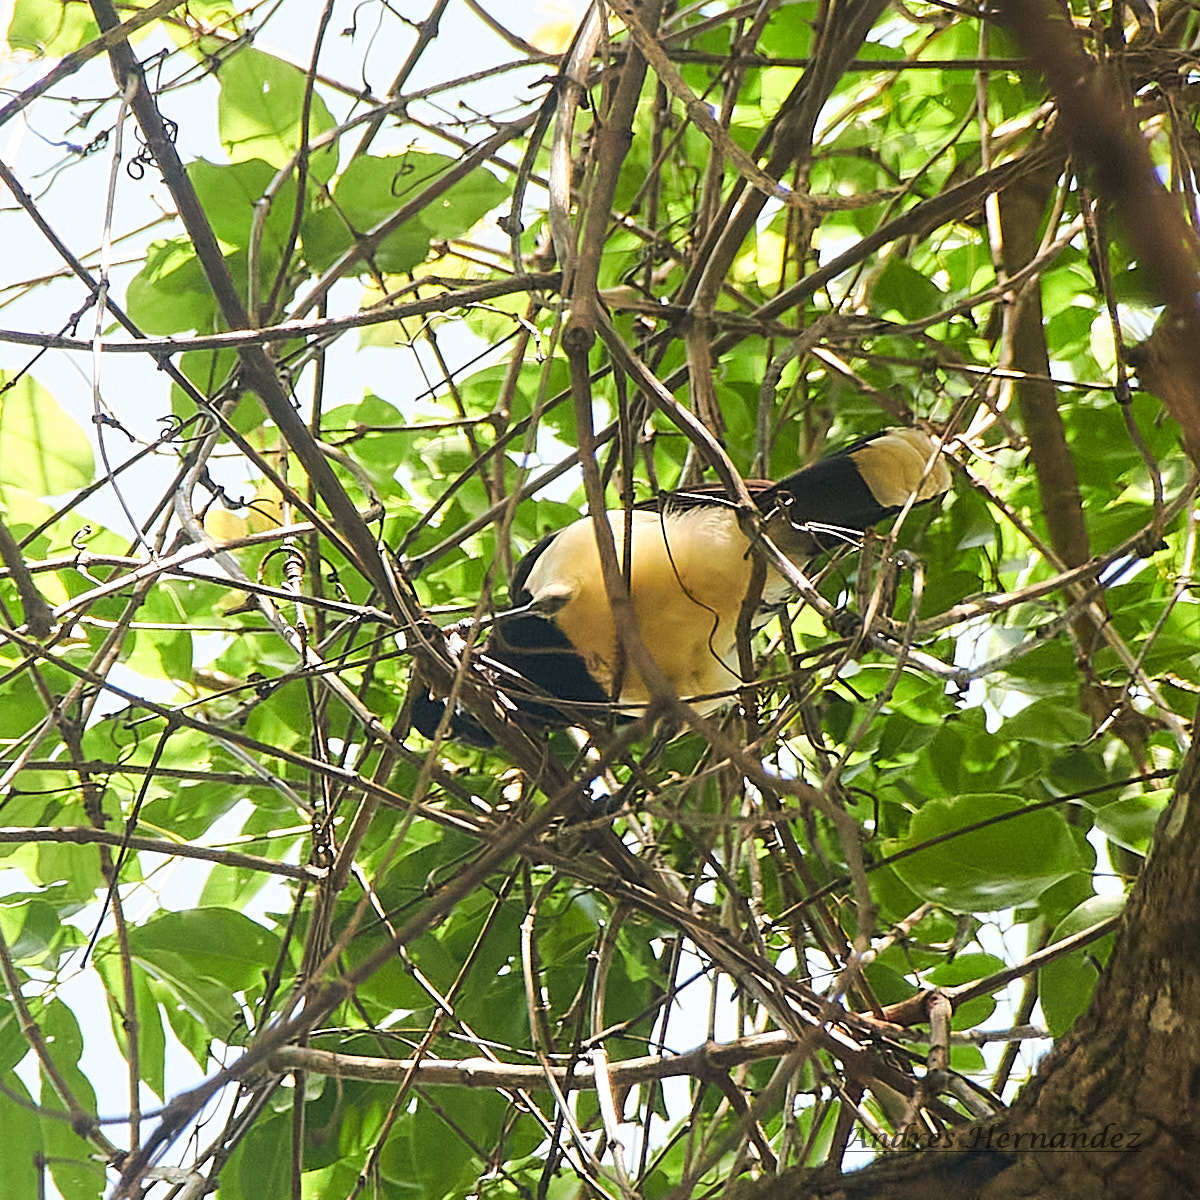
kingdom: Animalia
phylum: Chordata
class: Aves
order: Passeriformes
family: Corvidae
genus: Cyanocorax
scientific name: Cyanocorax affinis
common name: Black-chested jay
